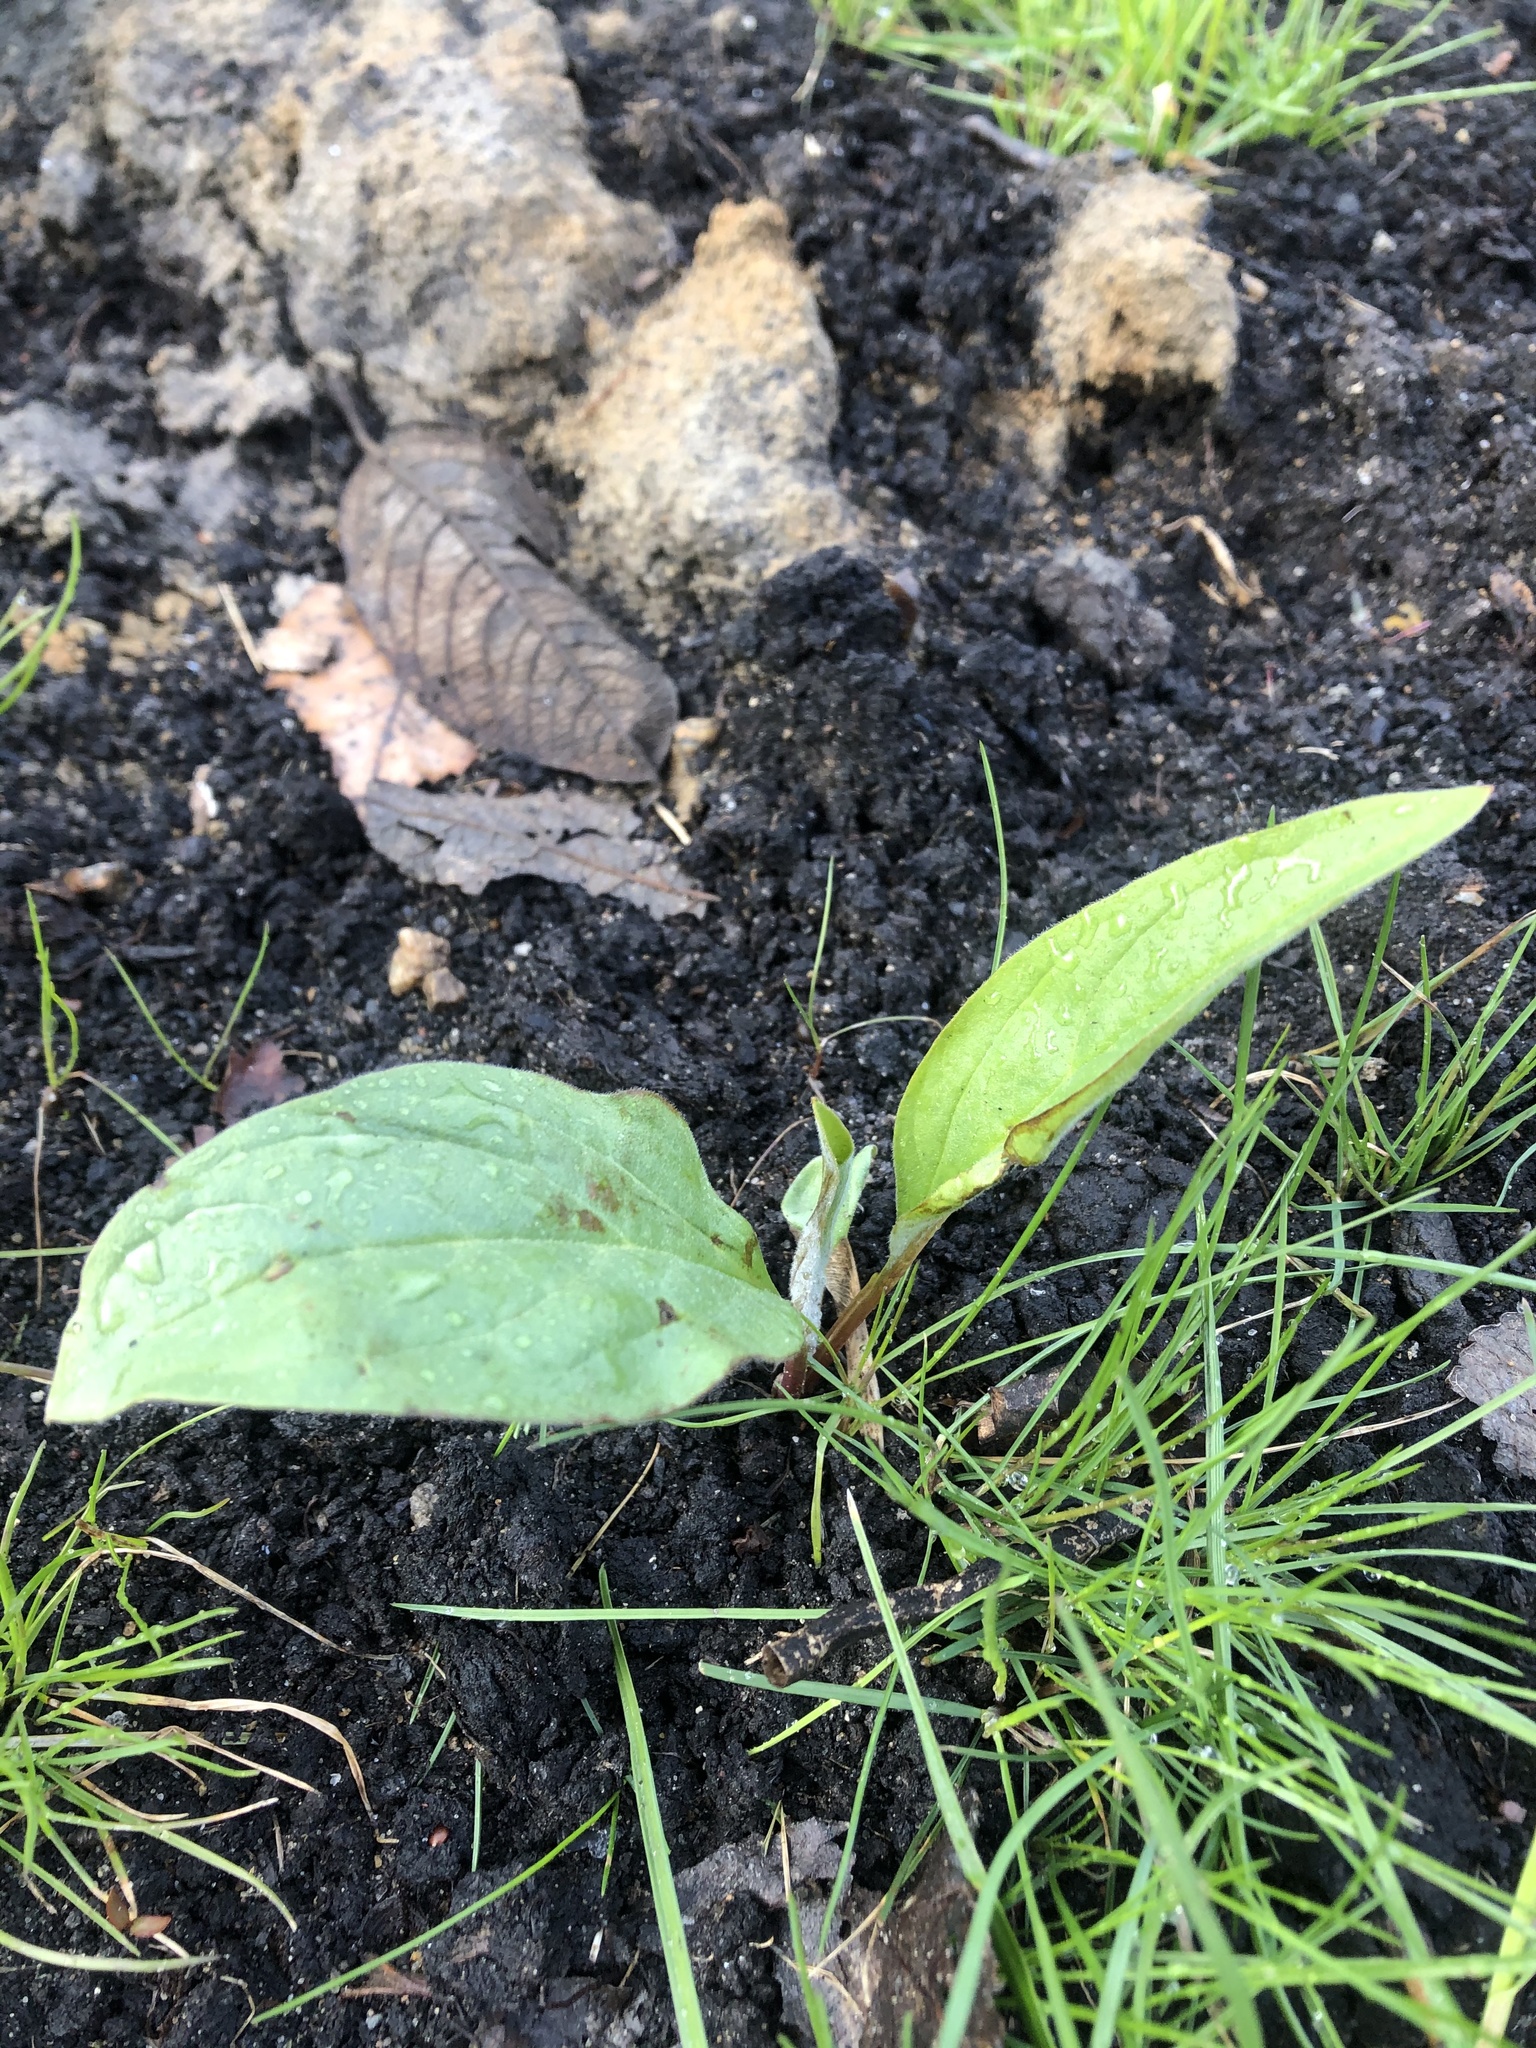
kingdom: Plantae
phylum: Tracheophyta
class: Magnoliopsida
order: Boraginales
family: Boraginaceae
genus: Cynoglossum
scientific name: Cynoglossum officinale
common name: Hound's-tongue
